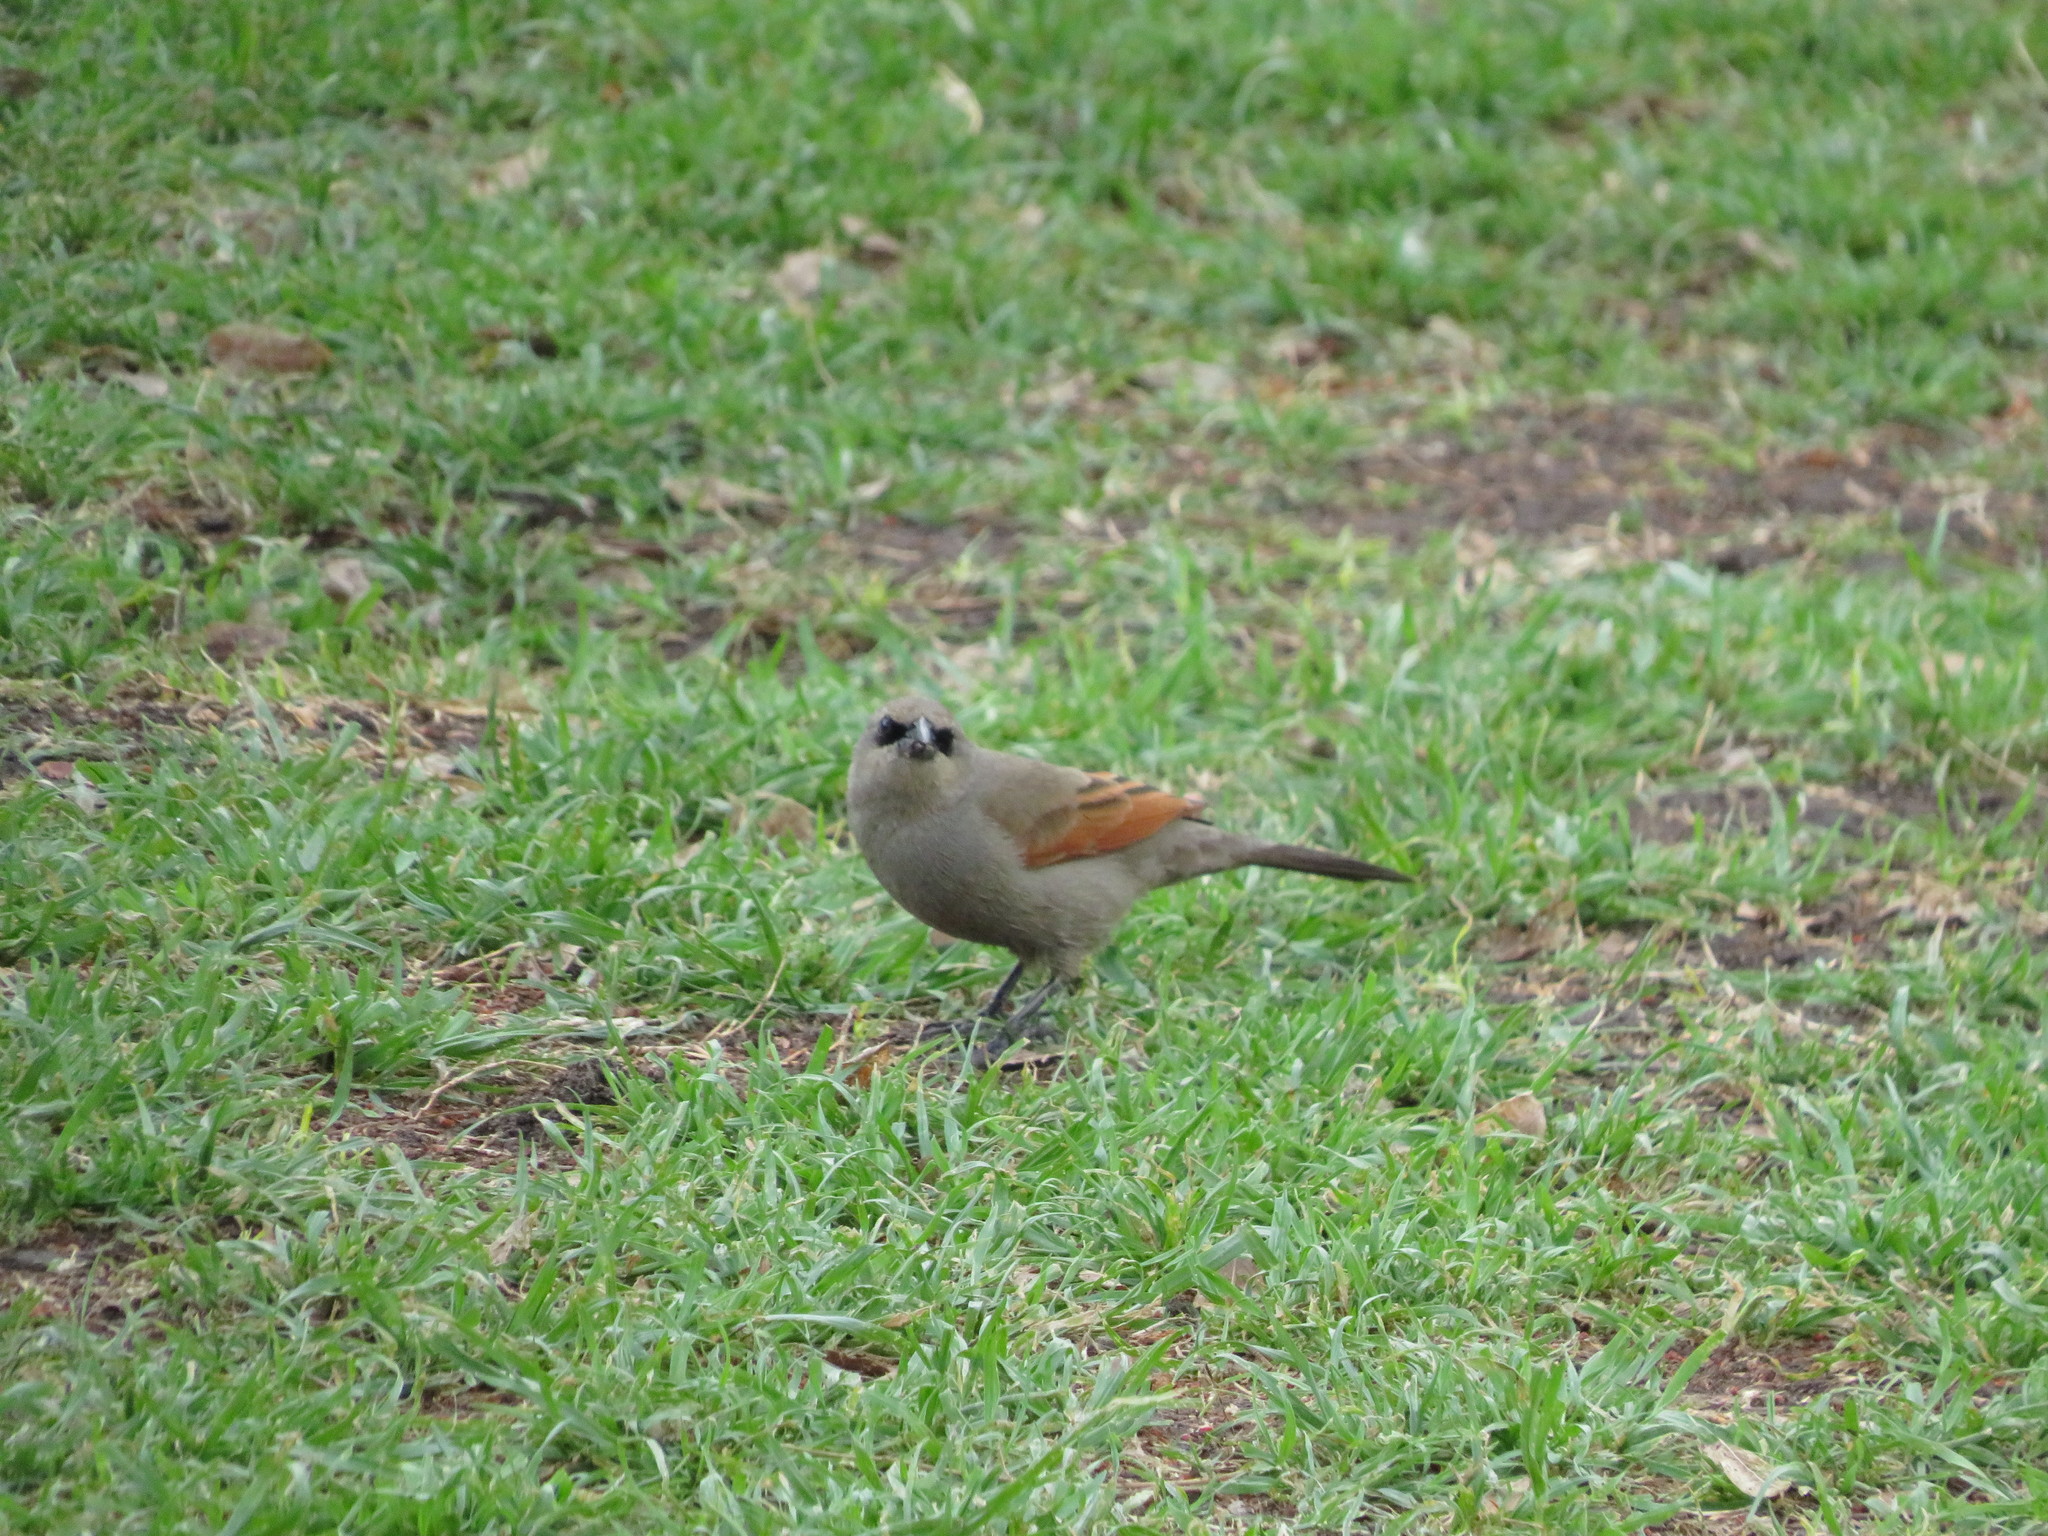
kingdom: Animalia
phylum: Chordata
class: Aves
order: Passeriformes
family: Icteridae
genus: Agelaioides
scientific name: Agelaioides badius
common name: Baywing
